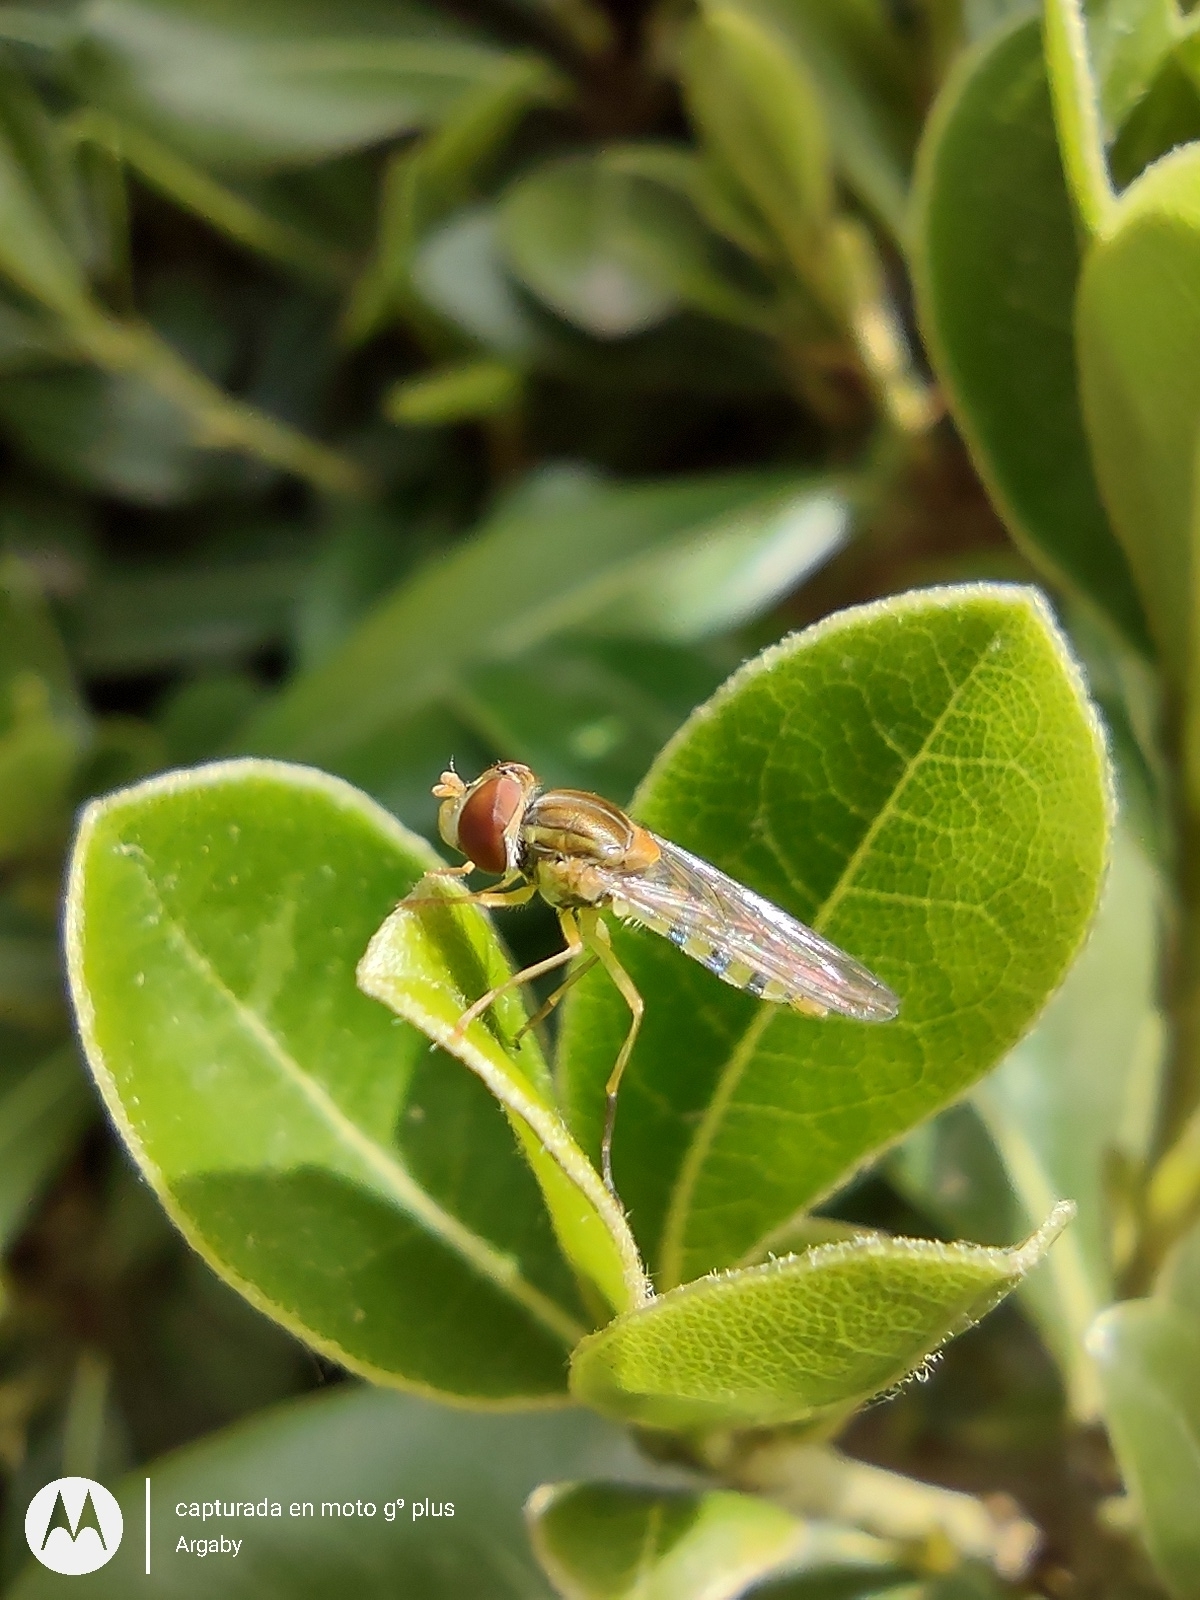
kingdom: Animalia
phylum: Arthropoda
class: Insecta
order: Diptera
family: Syrphidae
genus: Toxomerus
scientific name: Toxomerus
